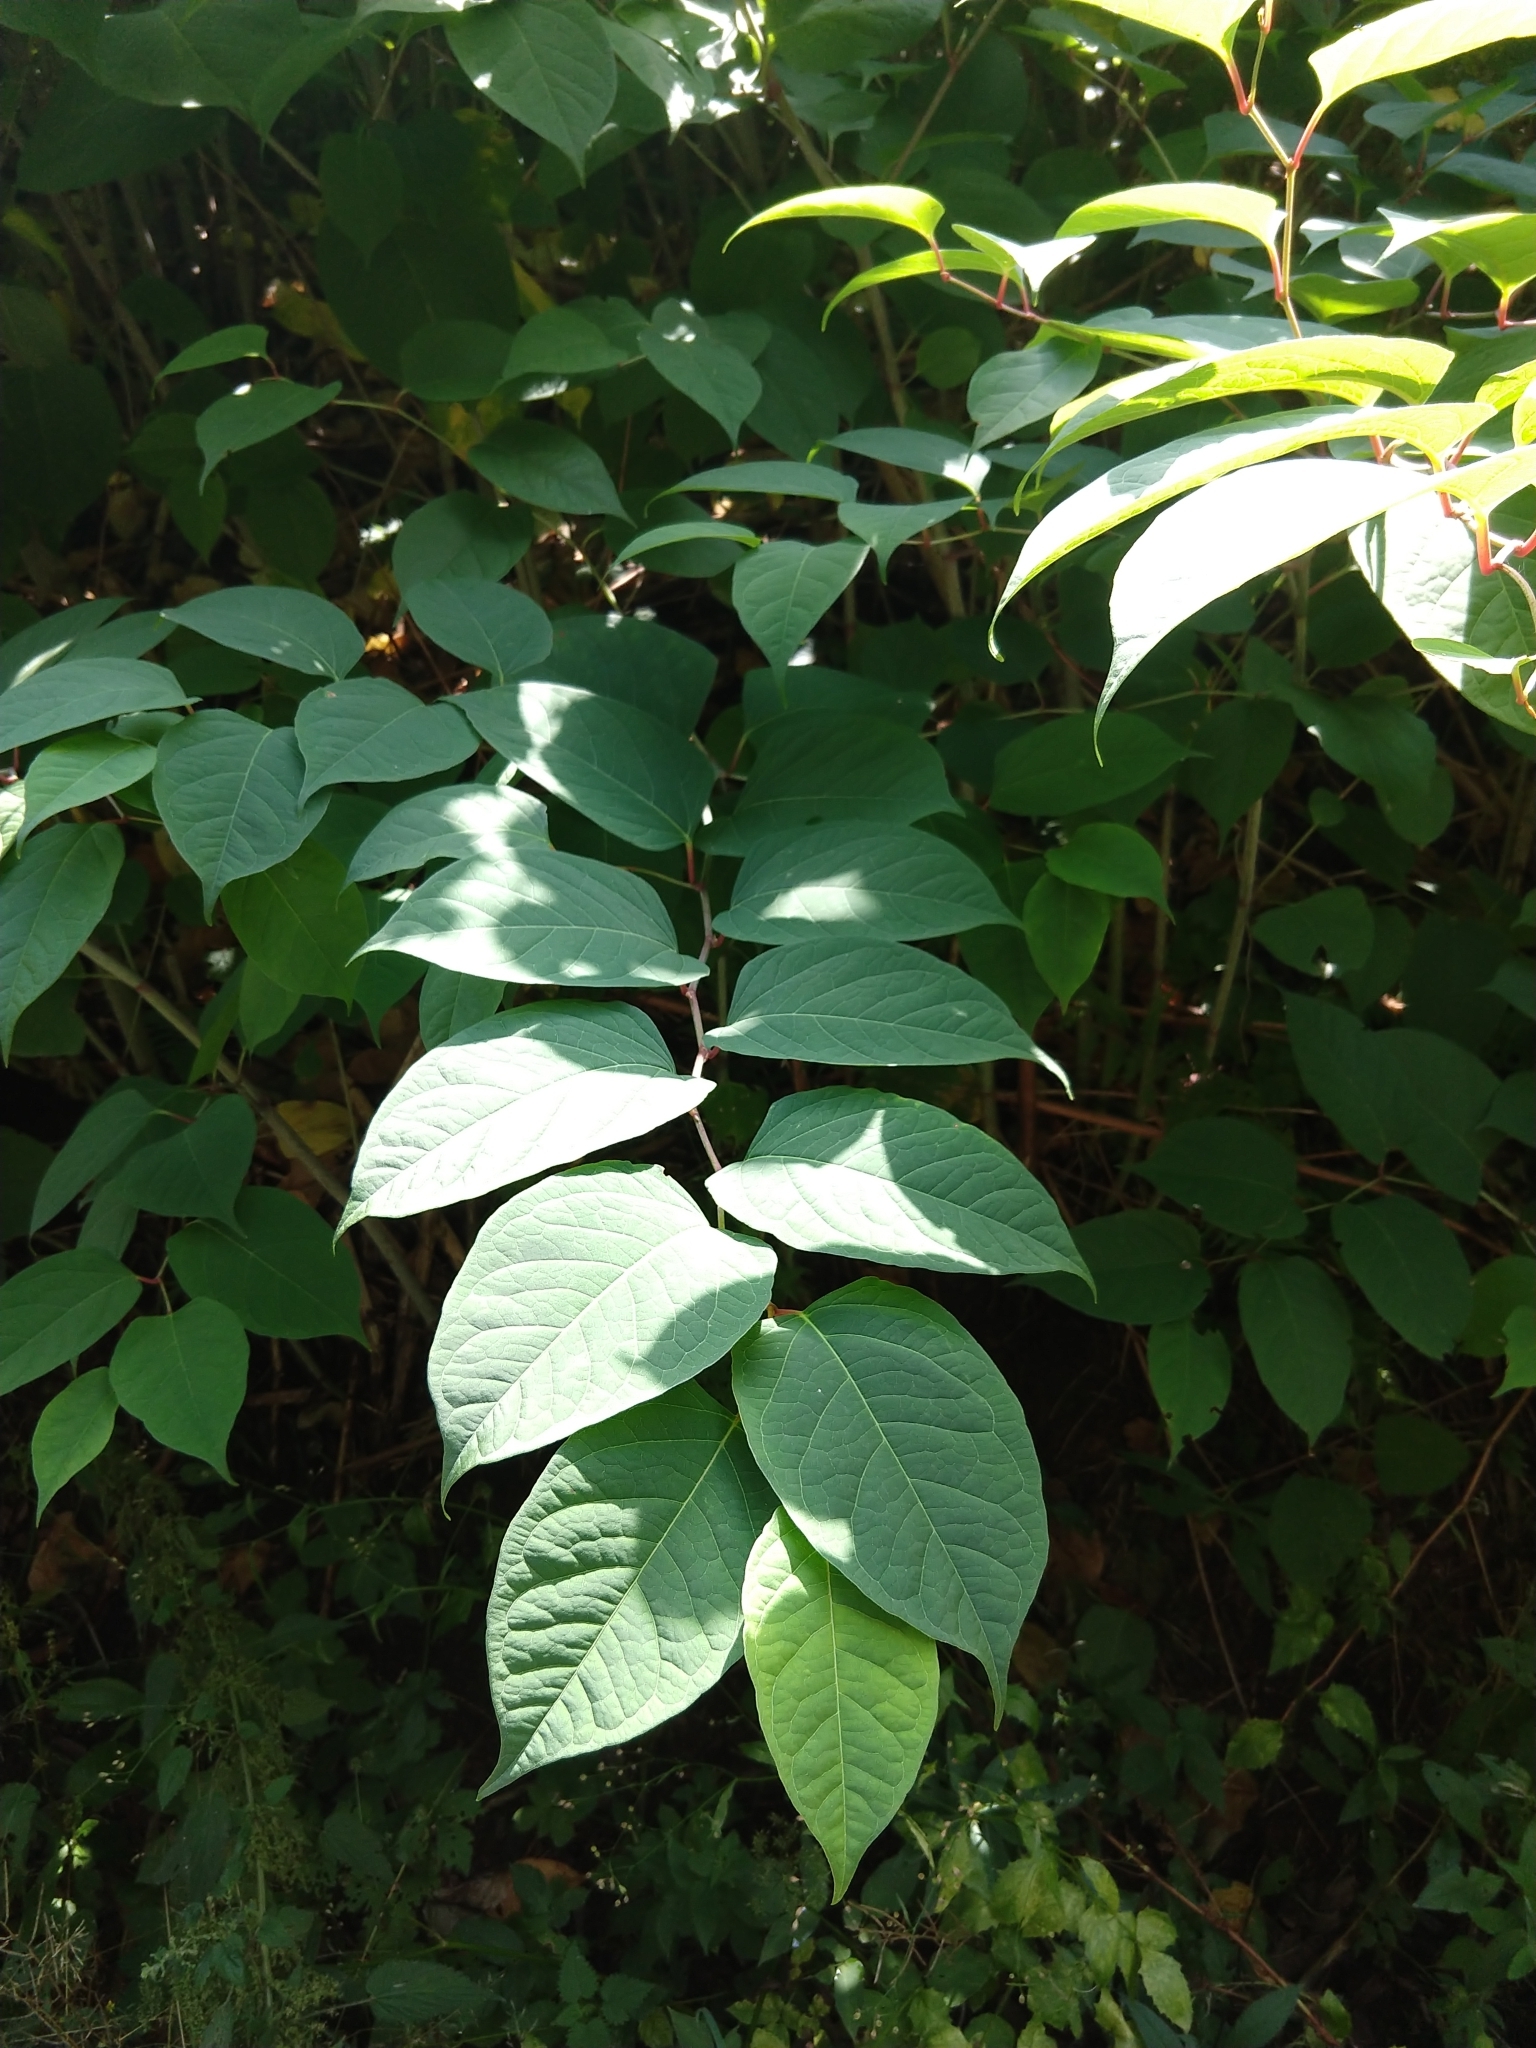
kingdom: Plantae
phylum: Tracheophyta
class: Magnoliopsida
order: Caryophyllales
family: Polygonaceae
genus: Reynoutria
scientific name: Reynoutria
